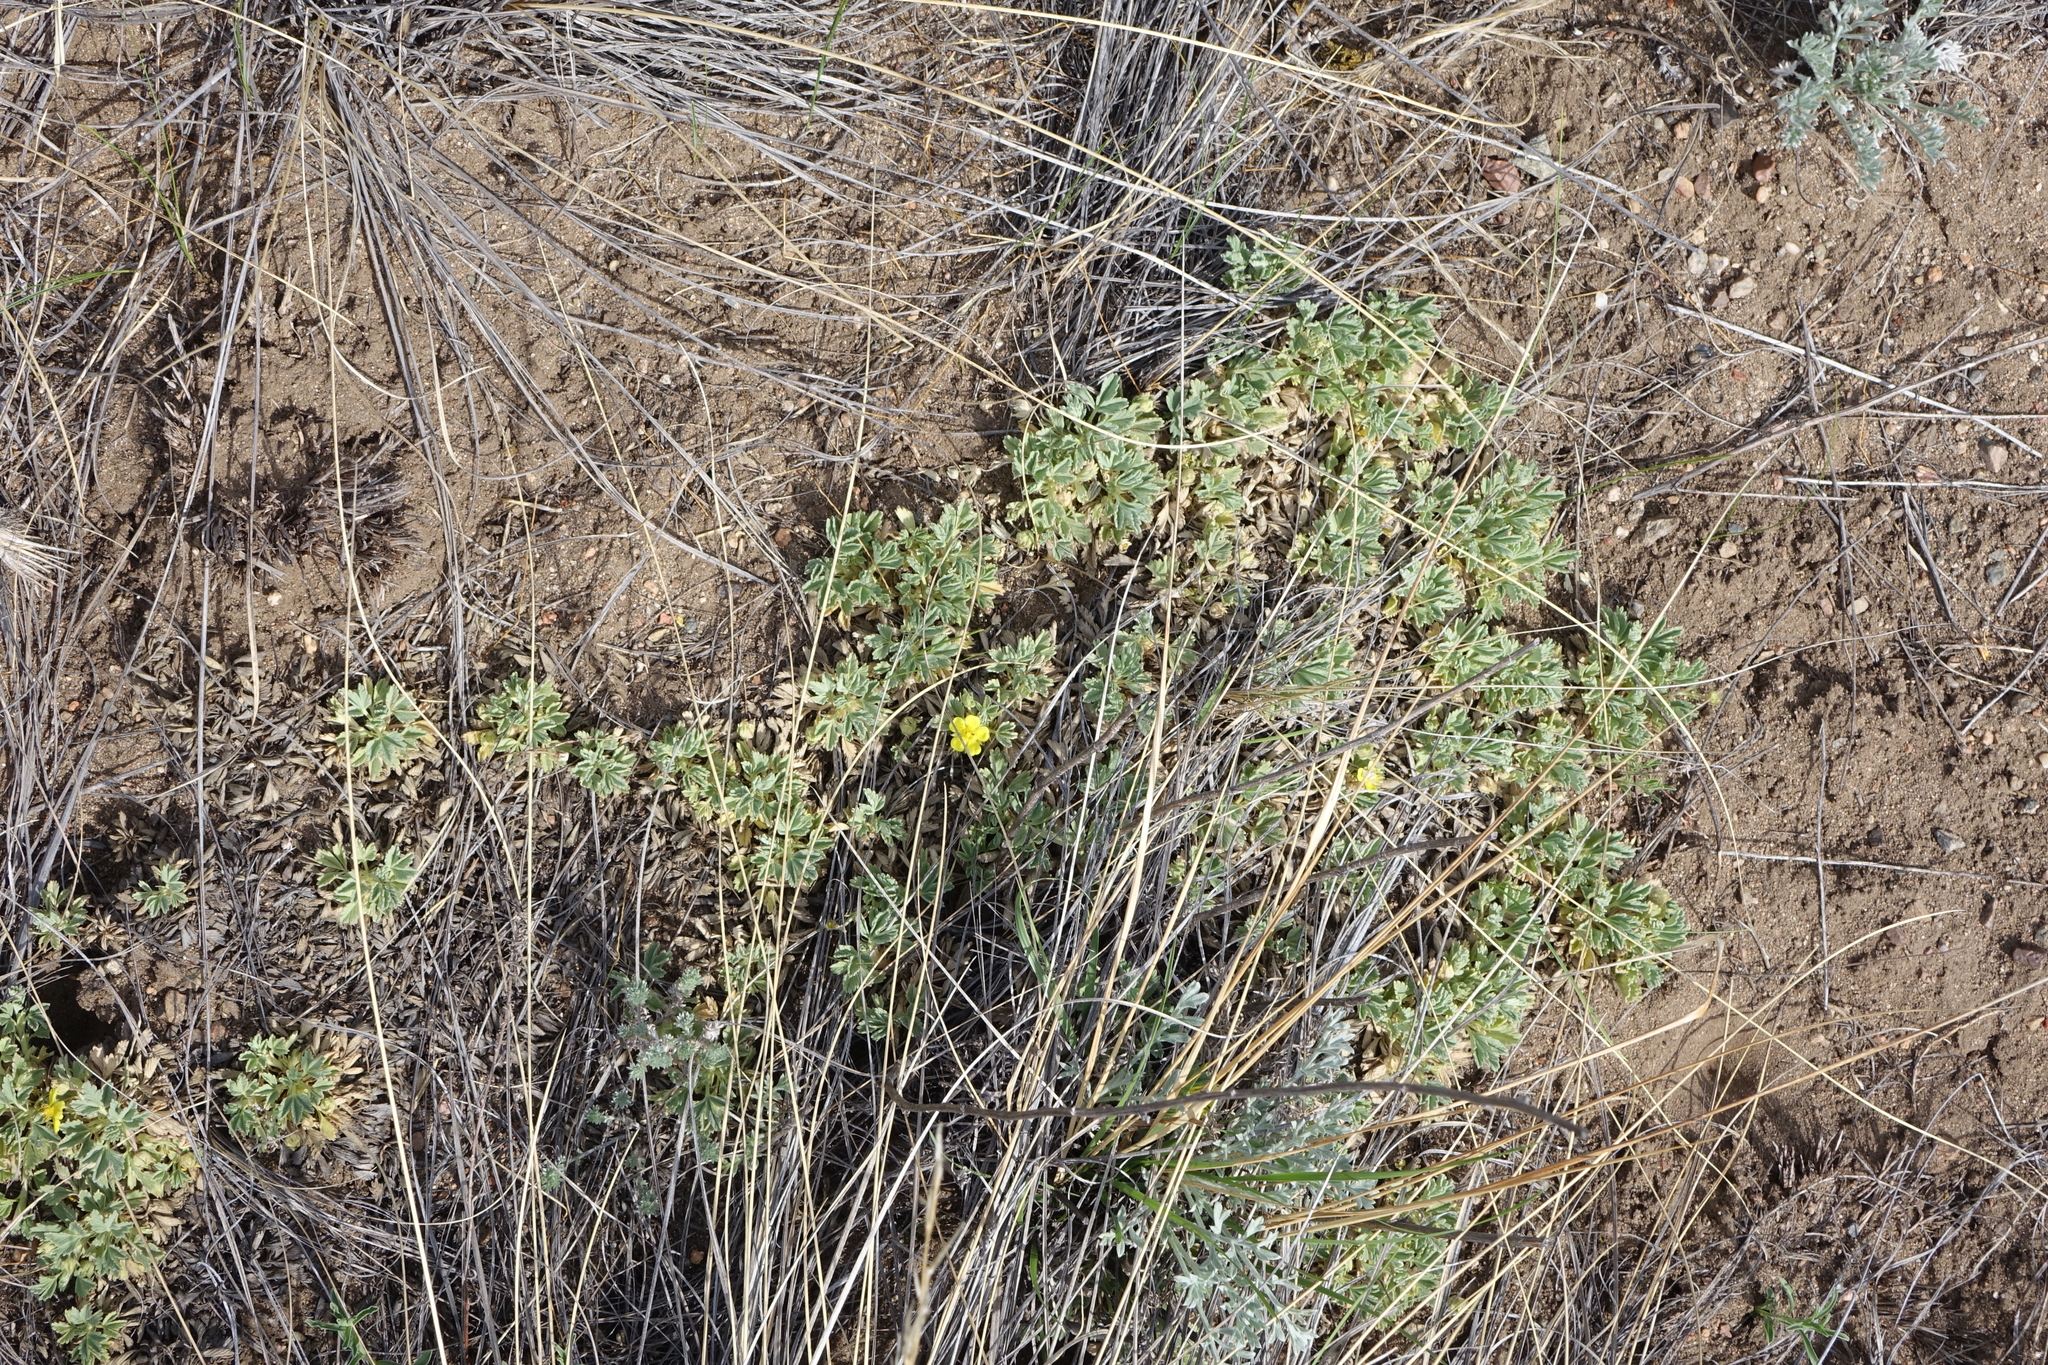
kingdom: Plantae
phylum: Tracheophyta
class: Magnoliopsida
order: Rosales
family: Rosaceae
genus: Potentilla
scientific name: Potentilla acaulis
